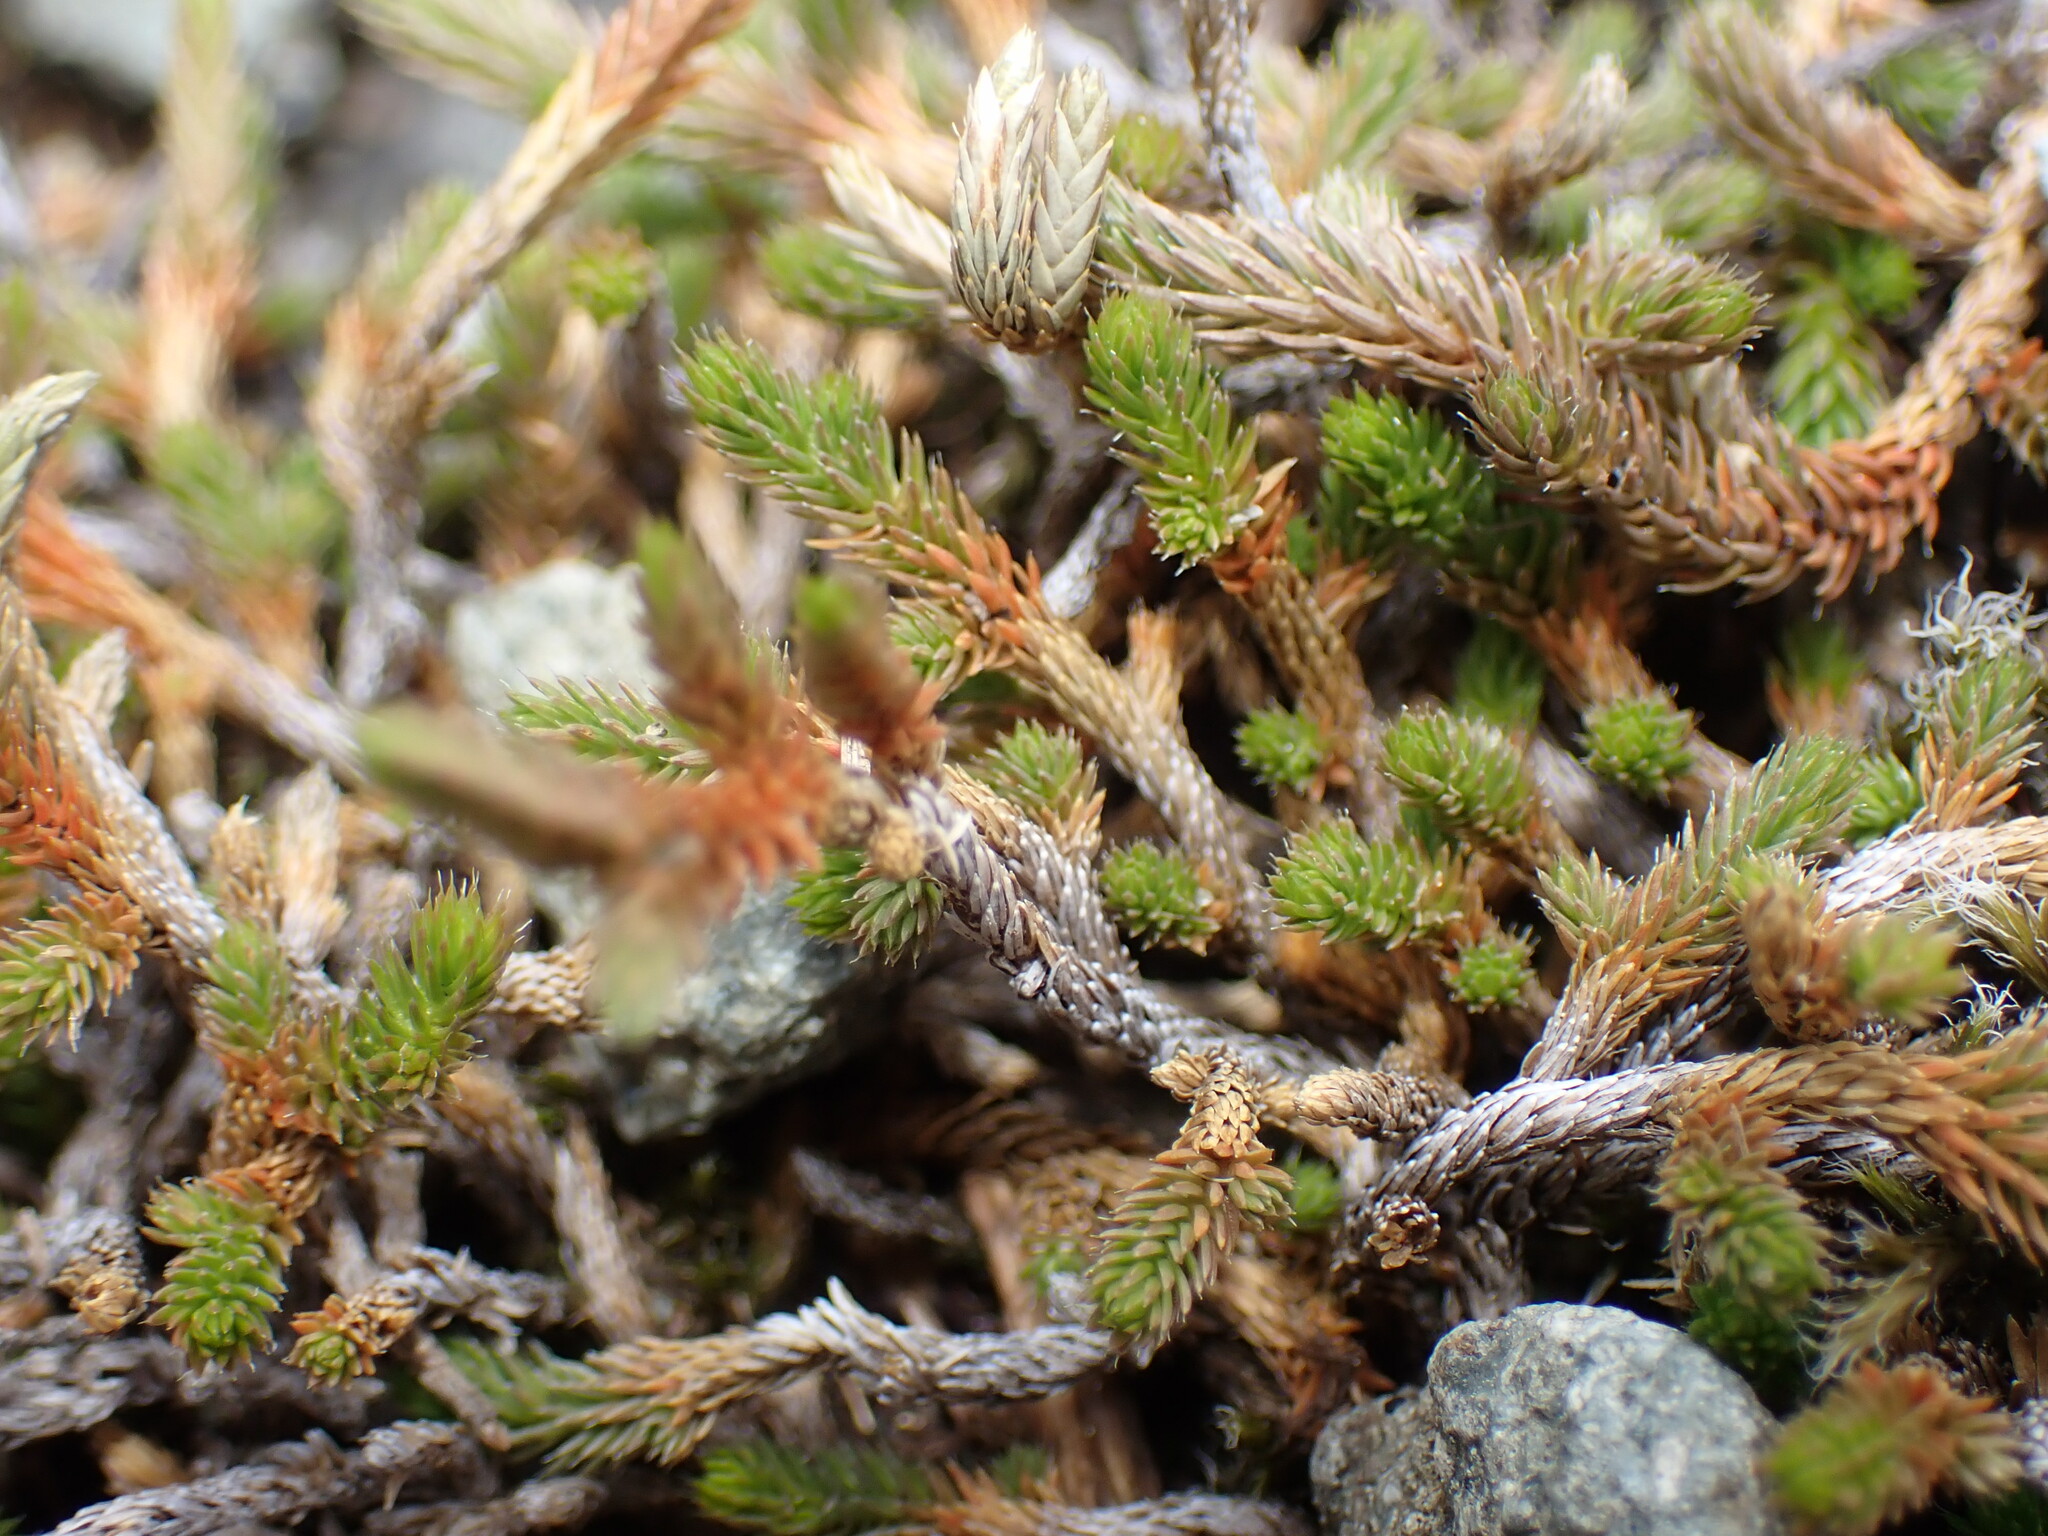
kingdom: Plantae
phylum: Tracheophyta
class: Lycopodiopsida
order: Selaginellales
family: Selaginellaceae
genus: Selaginella
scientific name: Selaginella wallacei
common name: Wallace's selaginella
